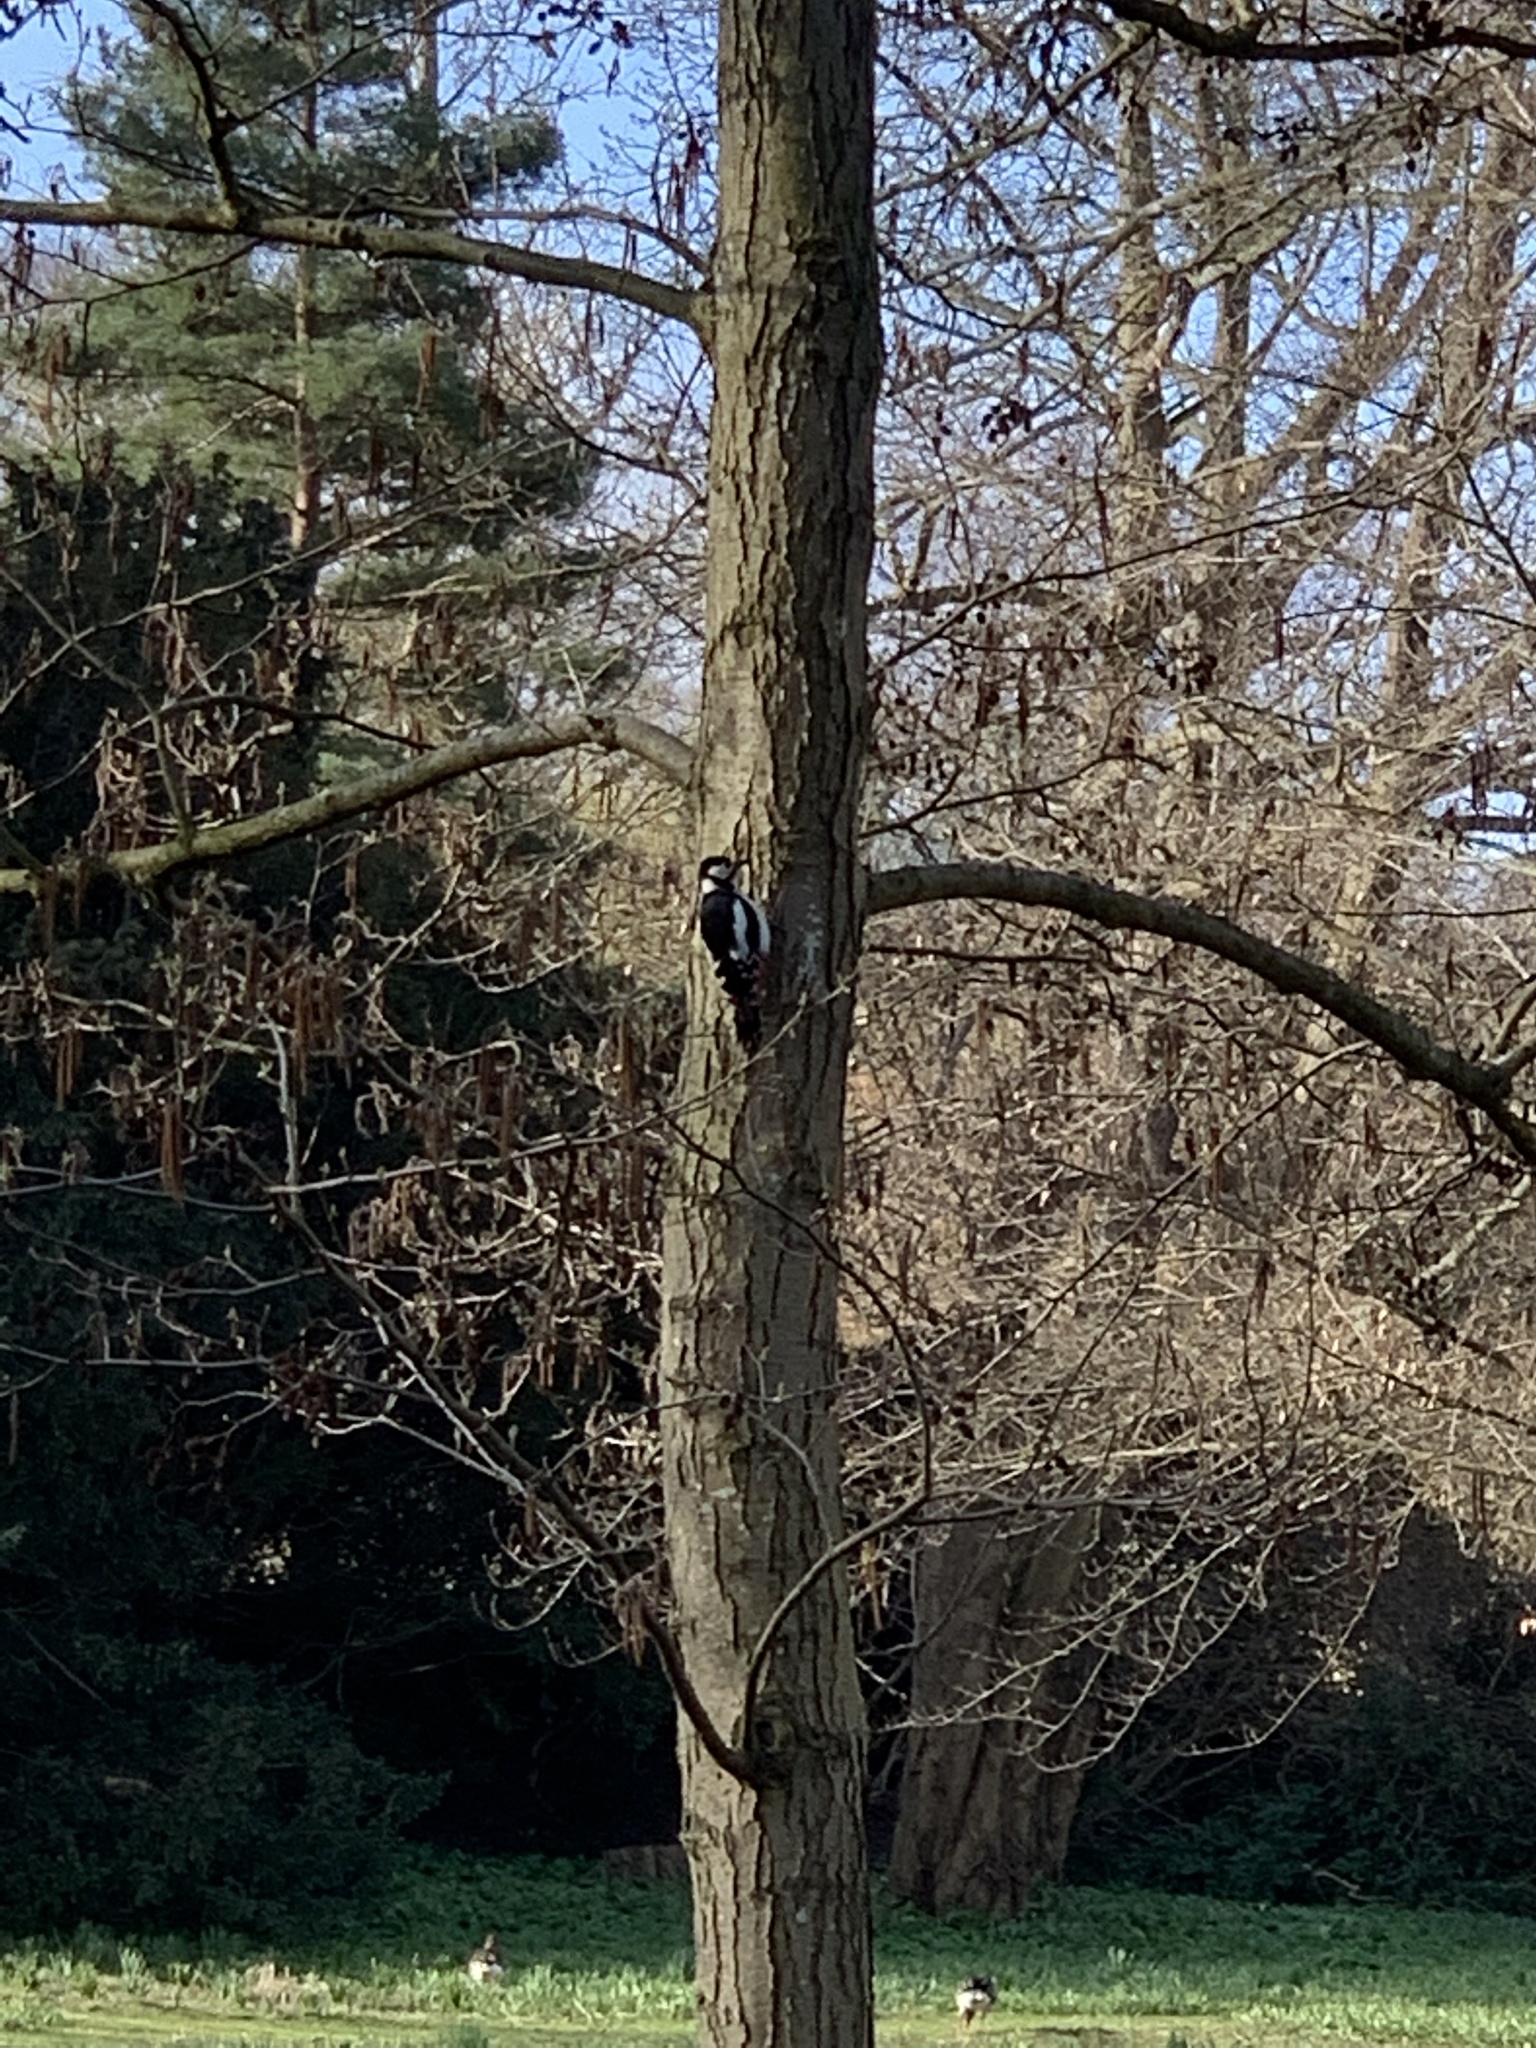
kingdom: Animalia
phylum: Chordata
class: Aves
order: Piciformes
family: Picidae
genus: Dendrocopos
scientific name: Dendrocopos major
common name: Great spotted woodpecker
